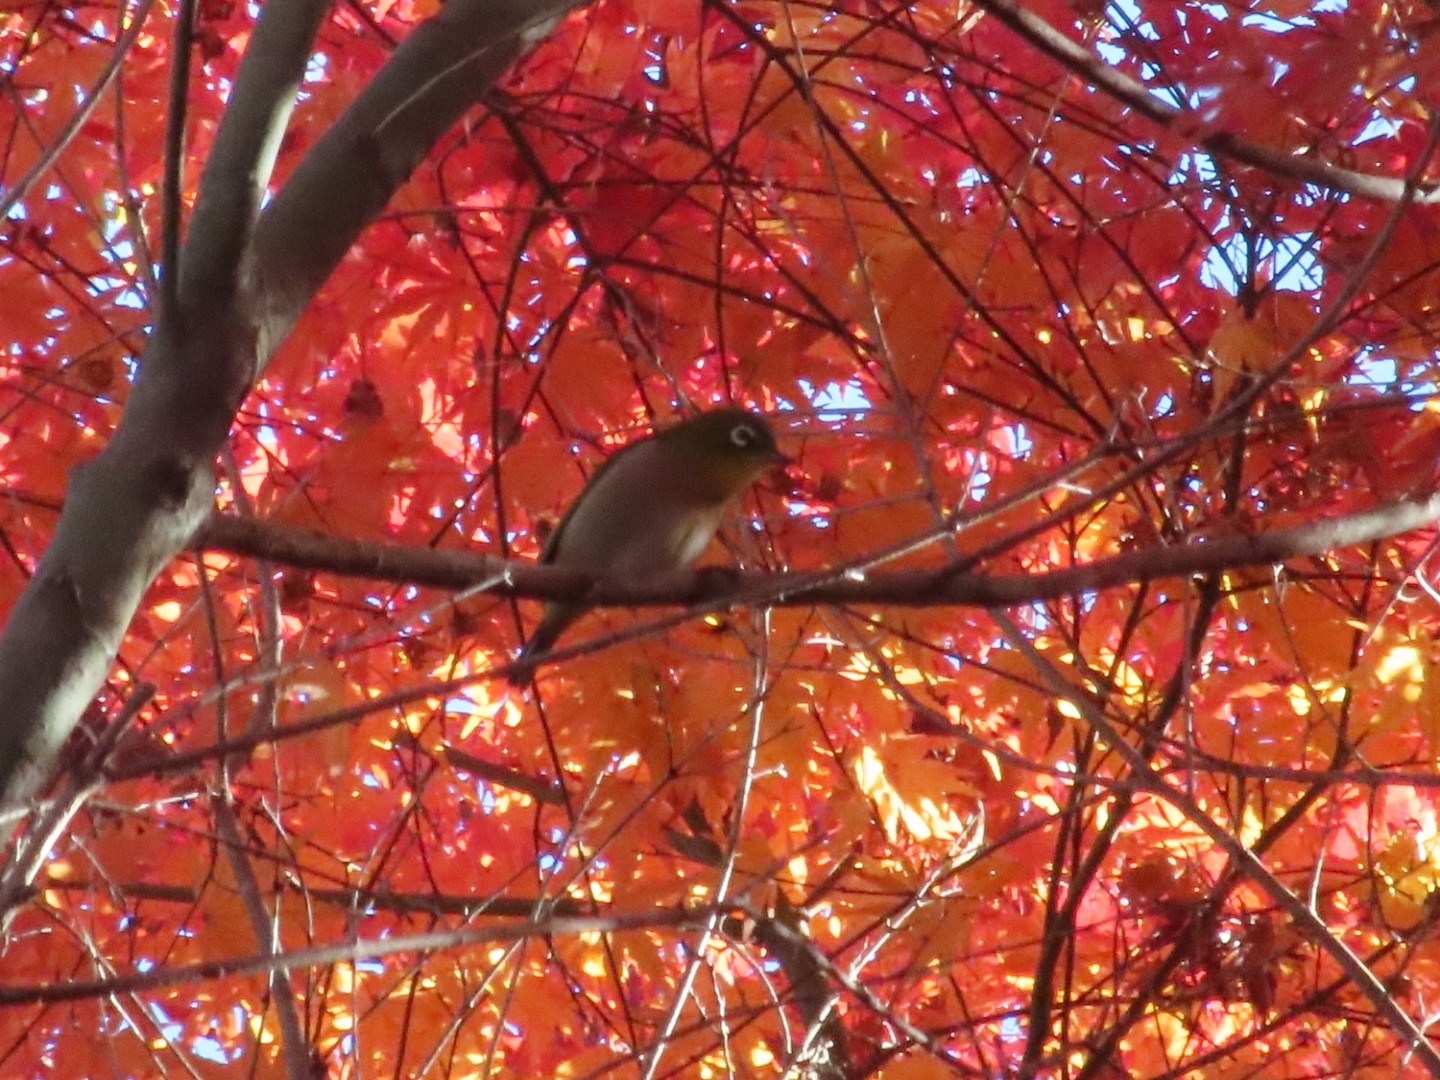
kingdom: Animalia
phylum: Chordata
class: Aves
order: Passeriformes
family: Zosteropidae
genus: Zosterops
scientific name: Zosterops japonicus
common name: Japanese white-eye
